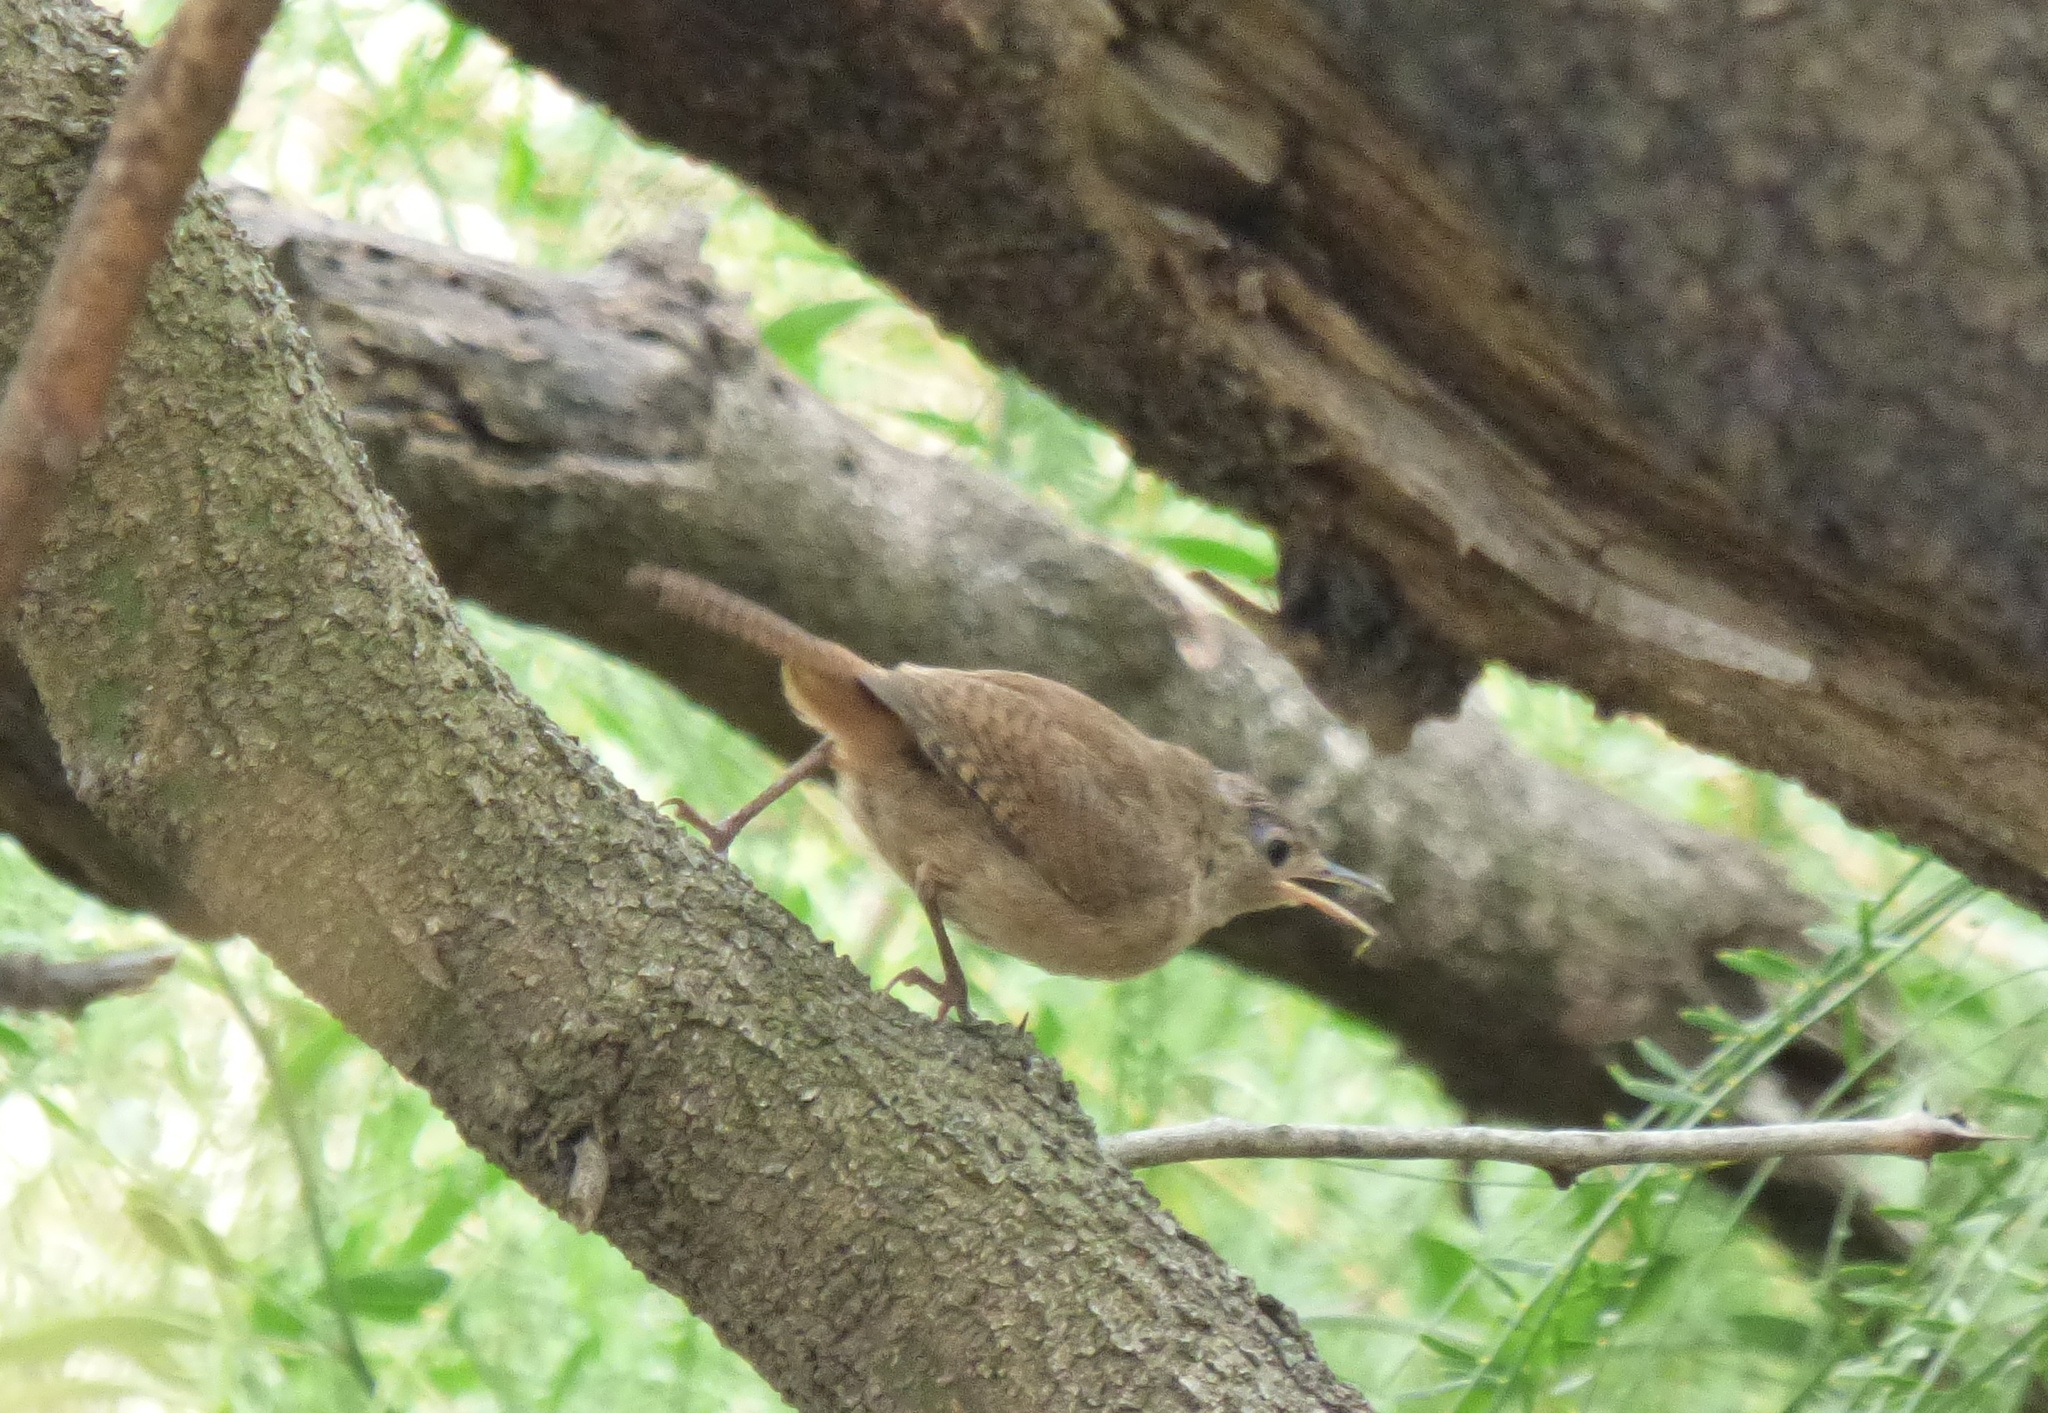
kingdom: Animalia
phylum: Chordata
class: Aves
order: Passeriformes
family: Troglodytidae
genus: Troglodytes
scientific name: Troglodytes aedon
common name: House wren
